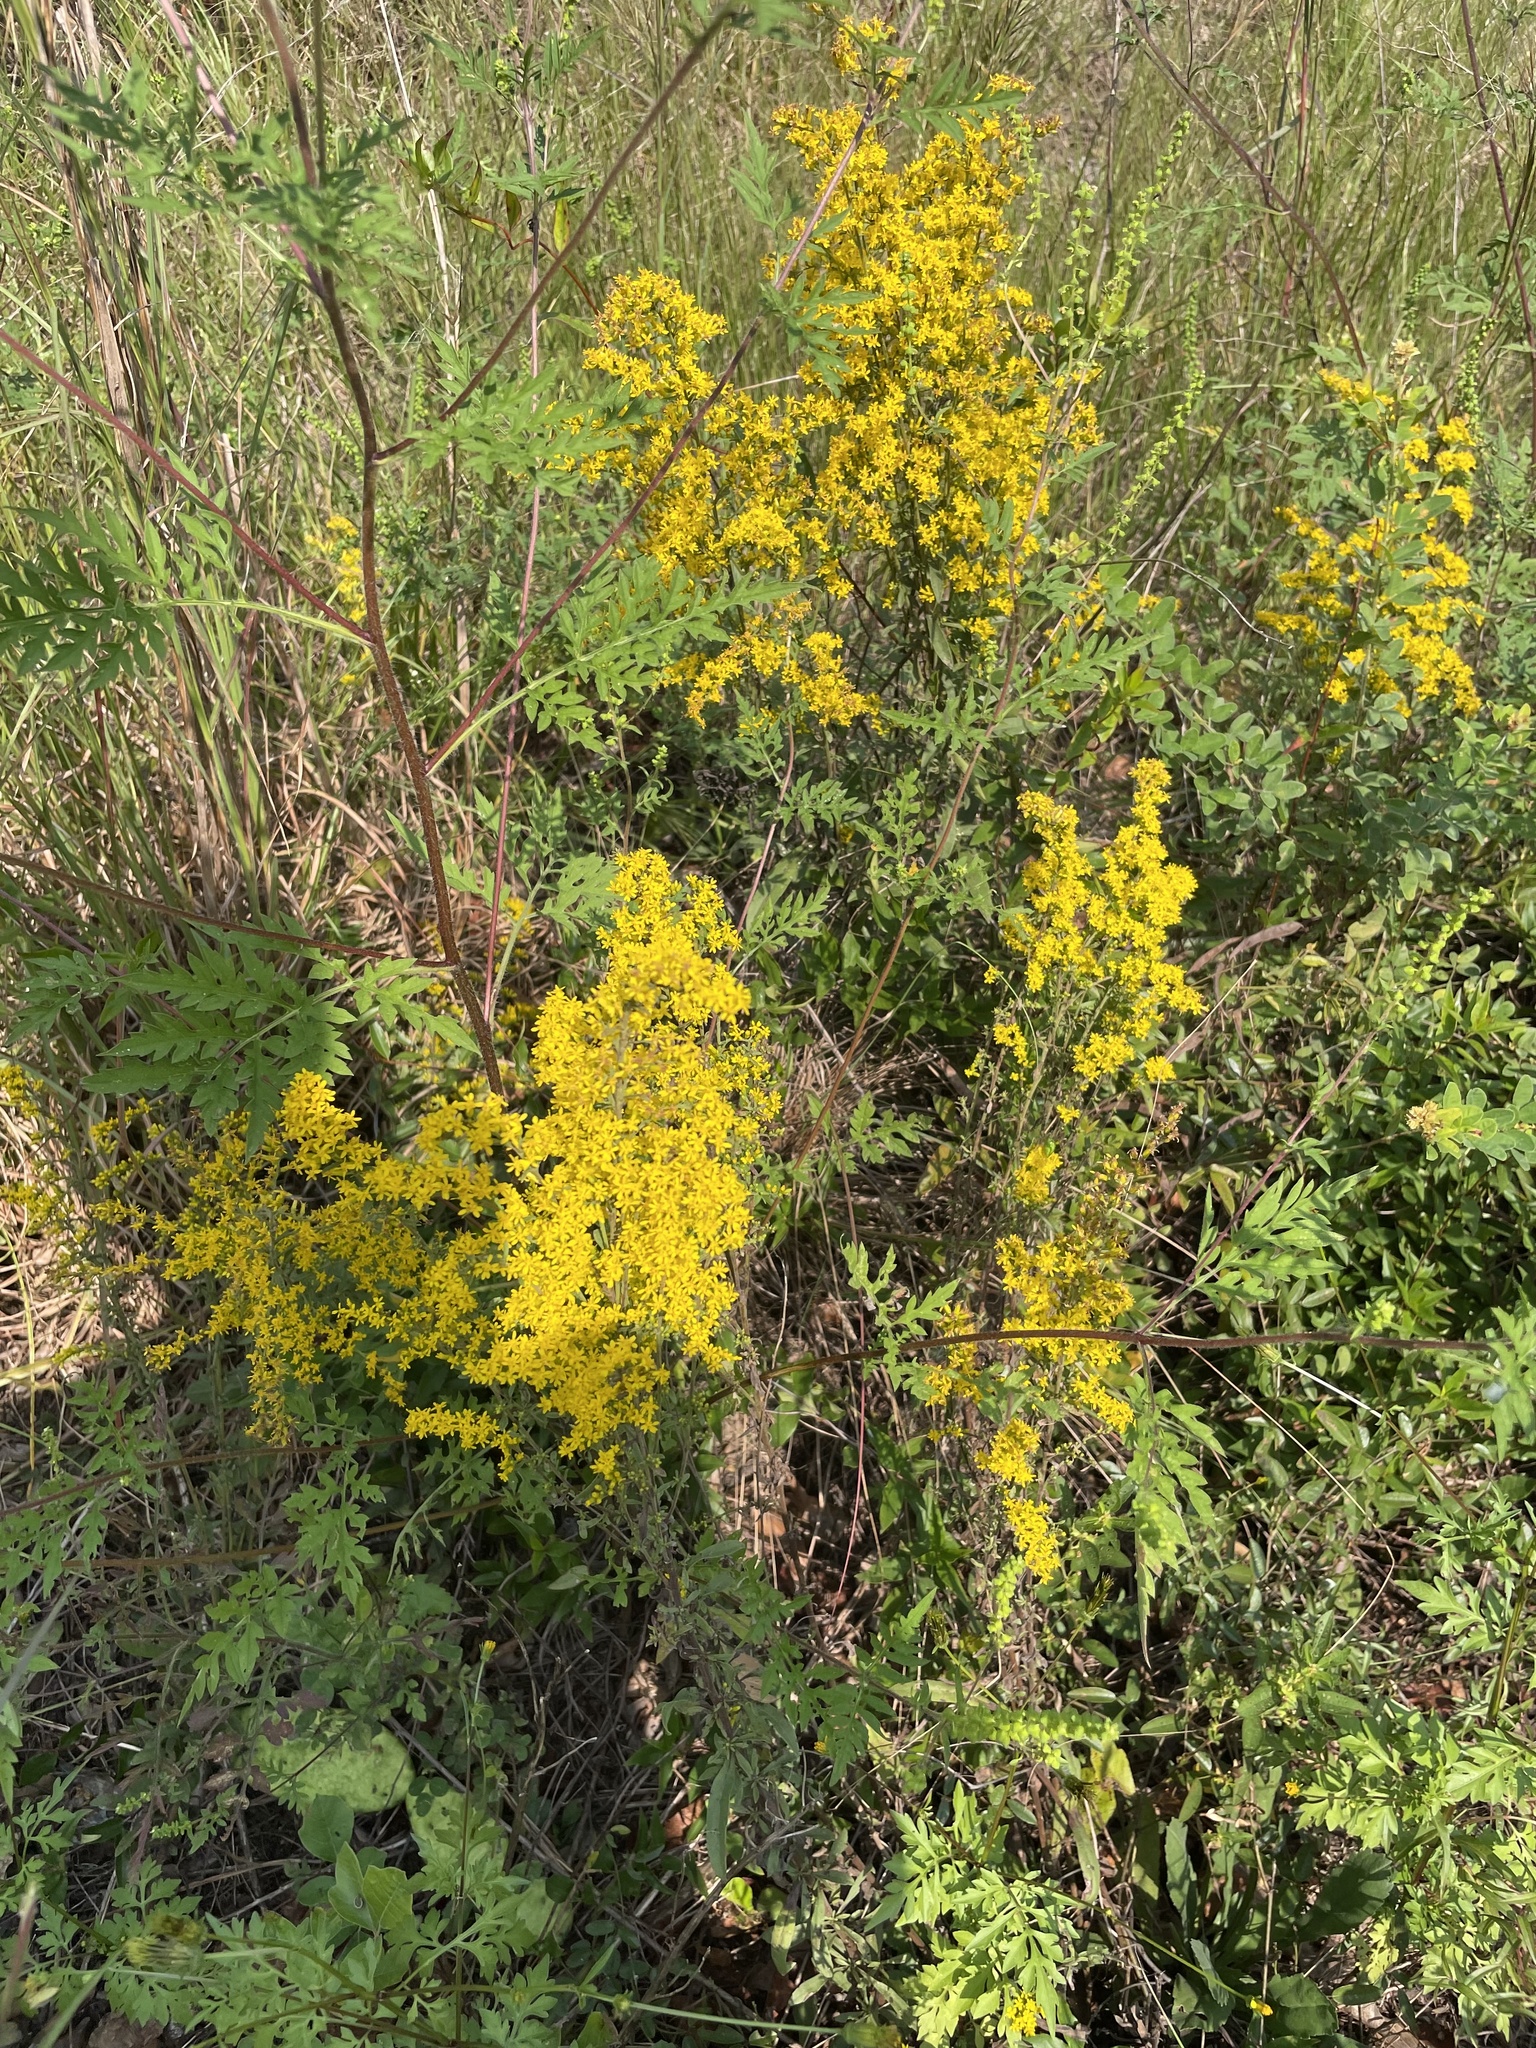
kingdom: Plantae
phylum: Tracheophyta
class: Magnoliopsida
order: Asterales
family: Asteraceae
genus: Solidago
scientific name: Solidago nemoralis
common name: Grey goldenrod
